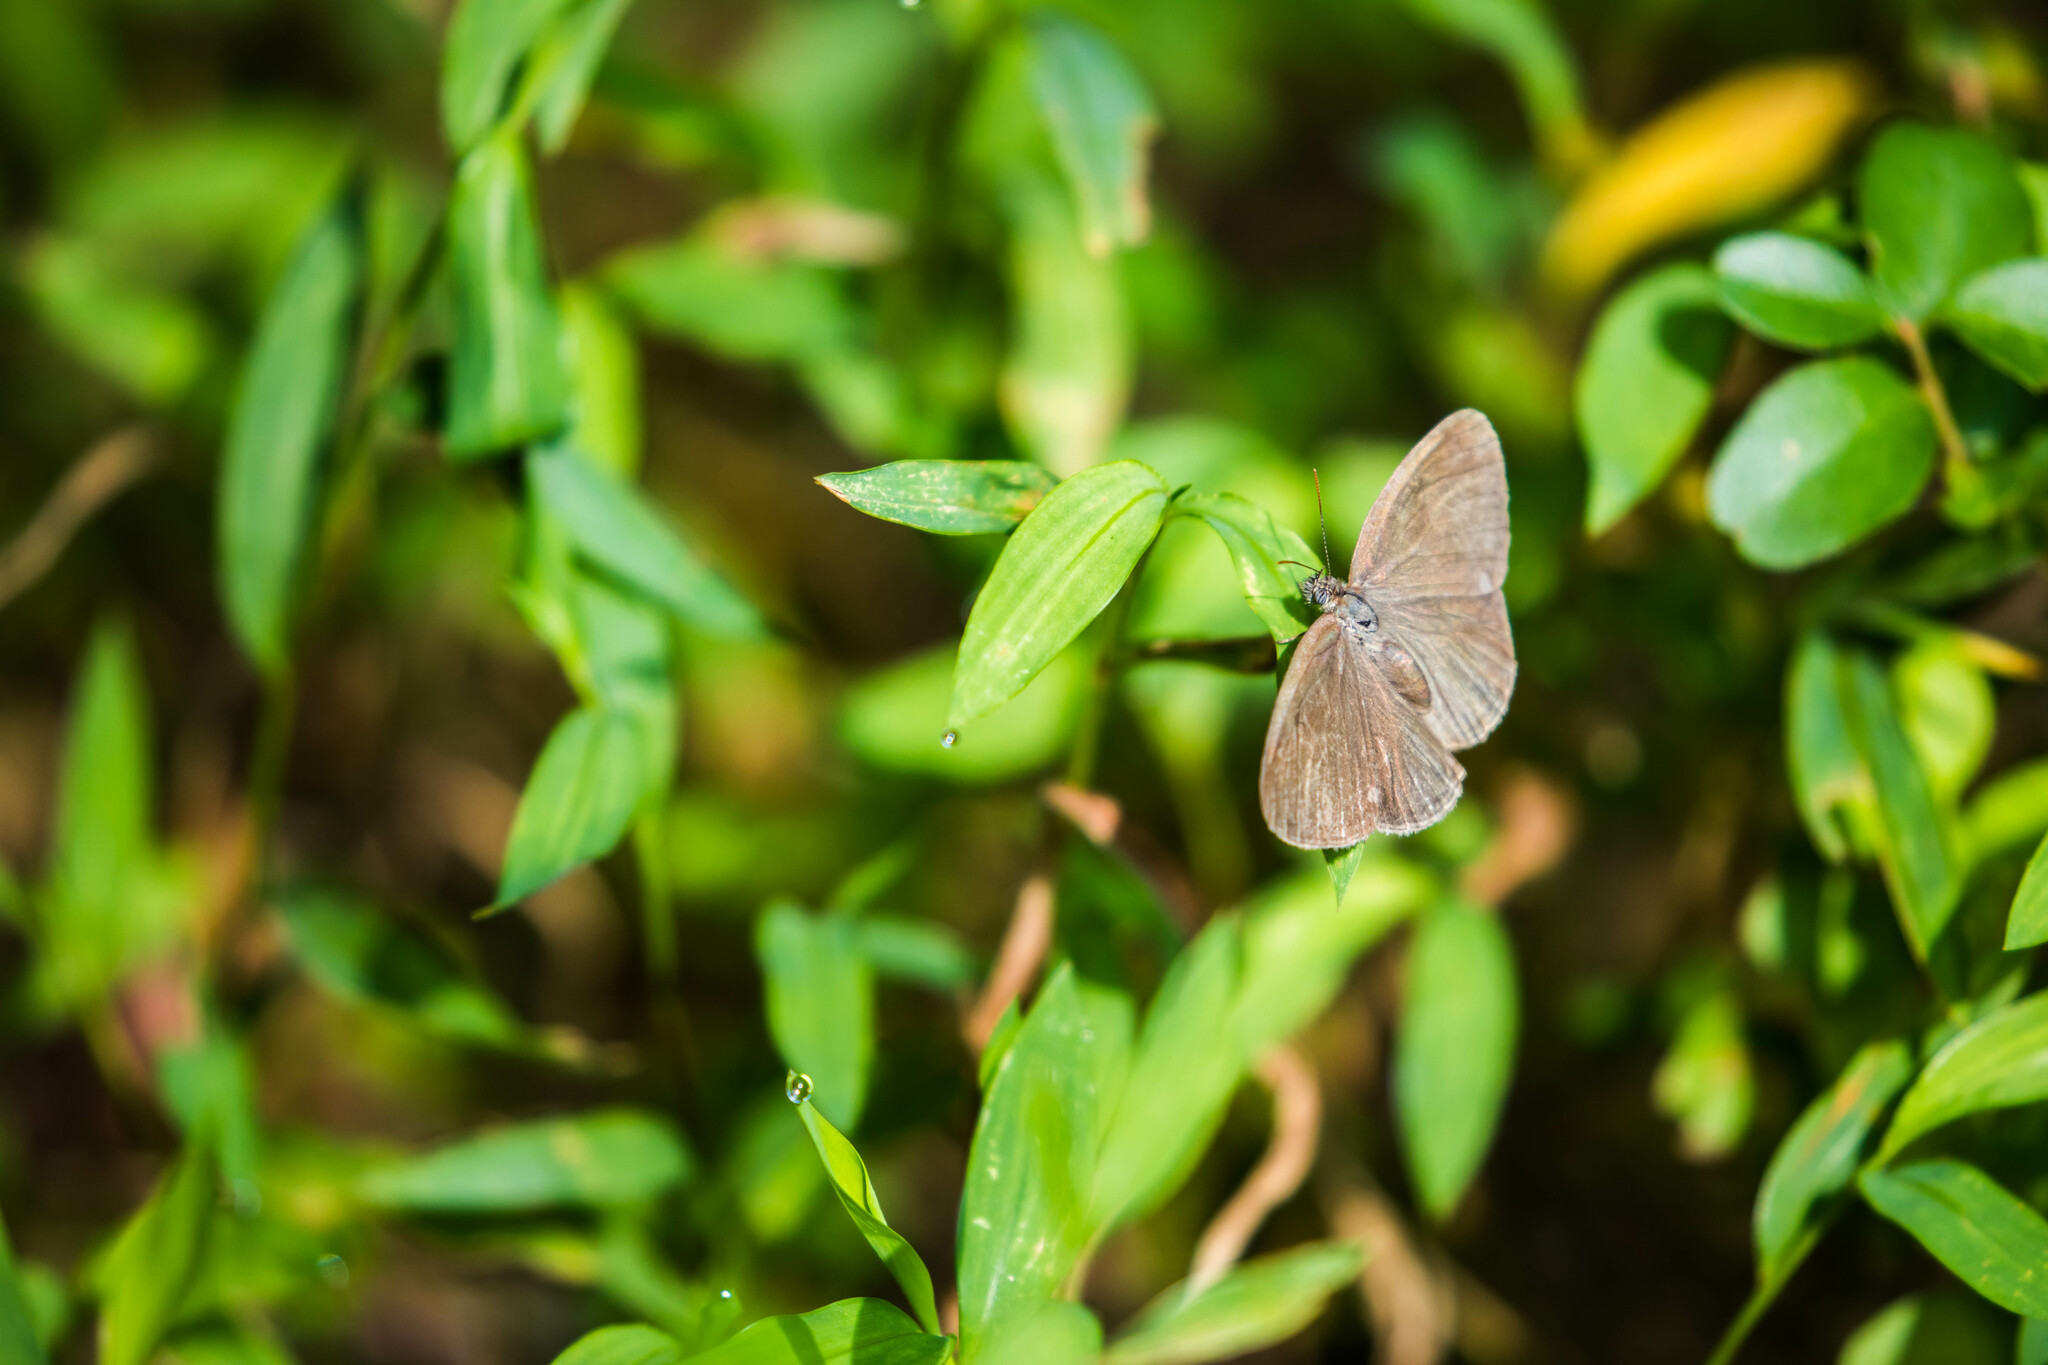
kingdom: Animalia
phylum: Arthropoda
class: Insecta
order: Lepidoptera
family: Nymphalidae
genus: Hermeuptychia
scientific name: Hermeuptychia hermes
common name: Hermes satyr
